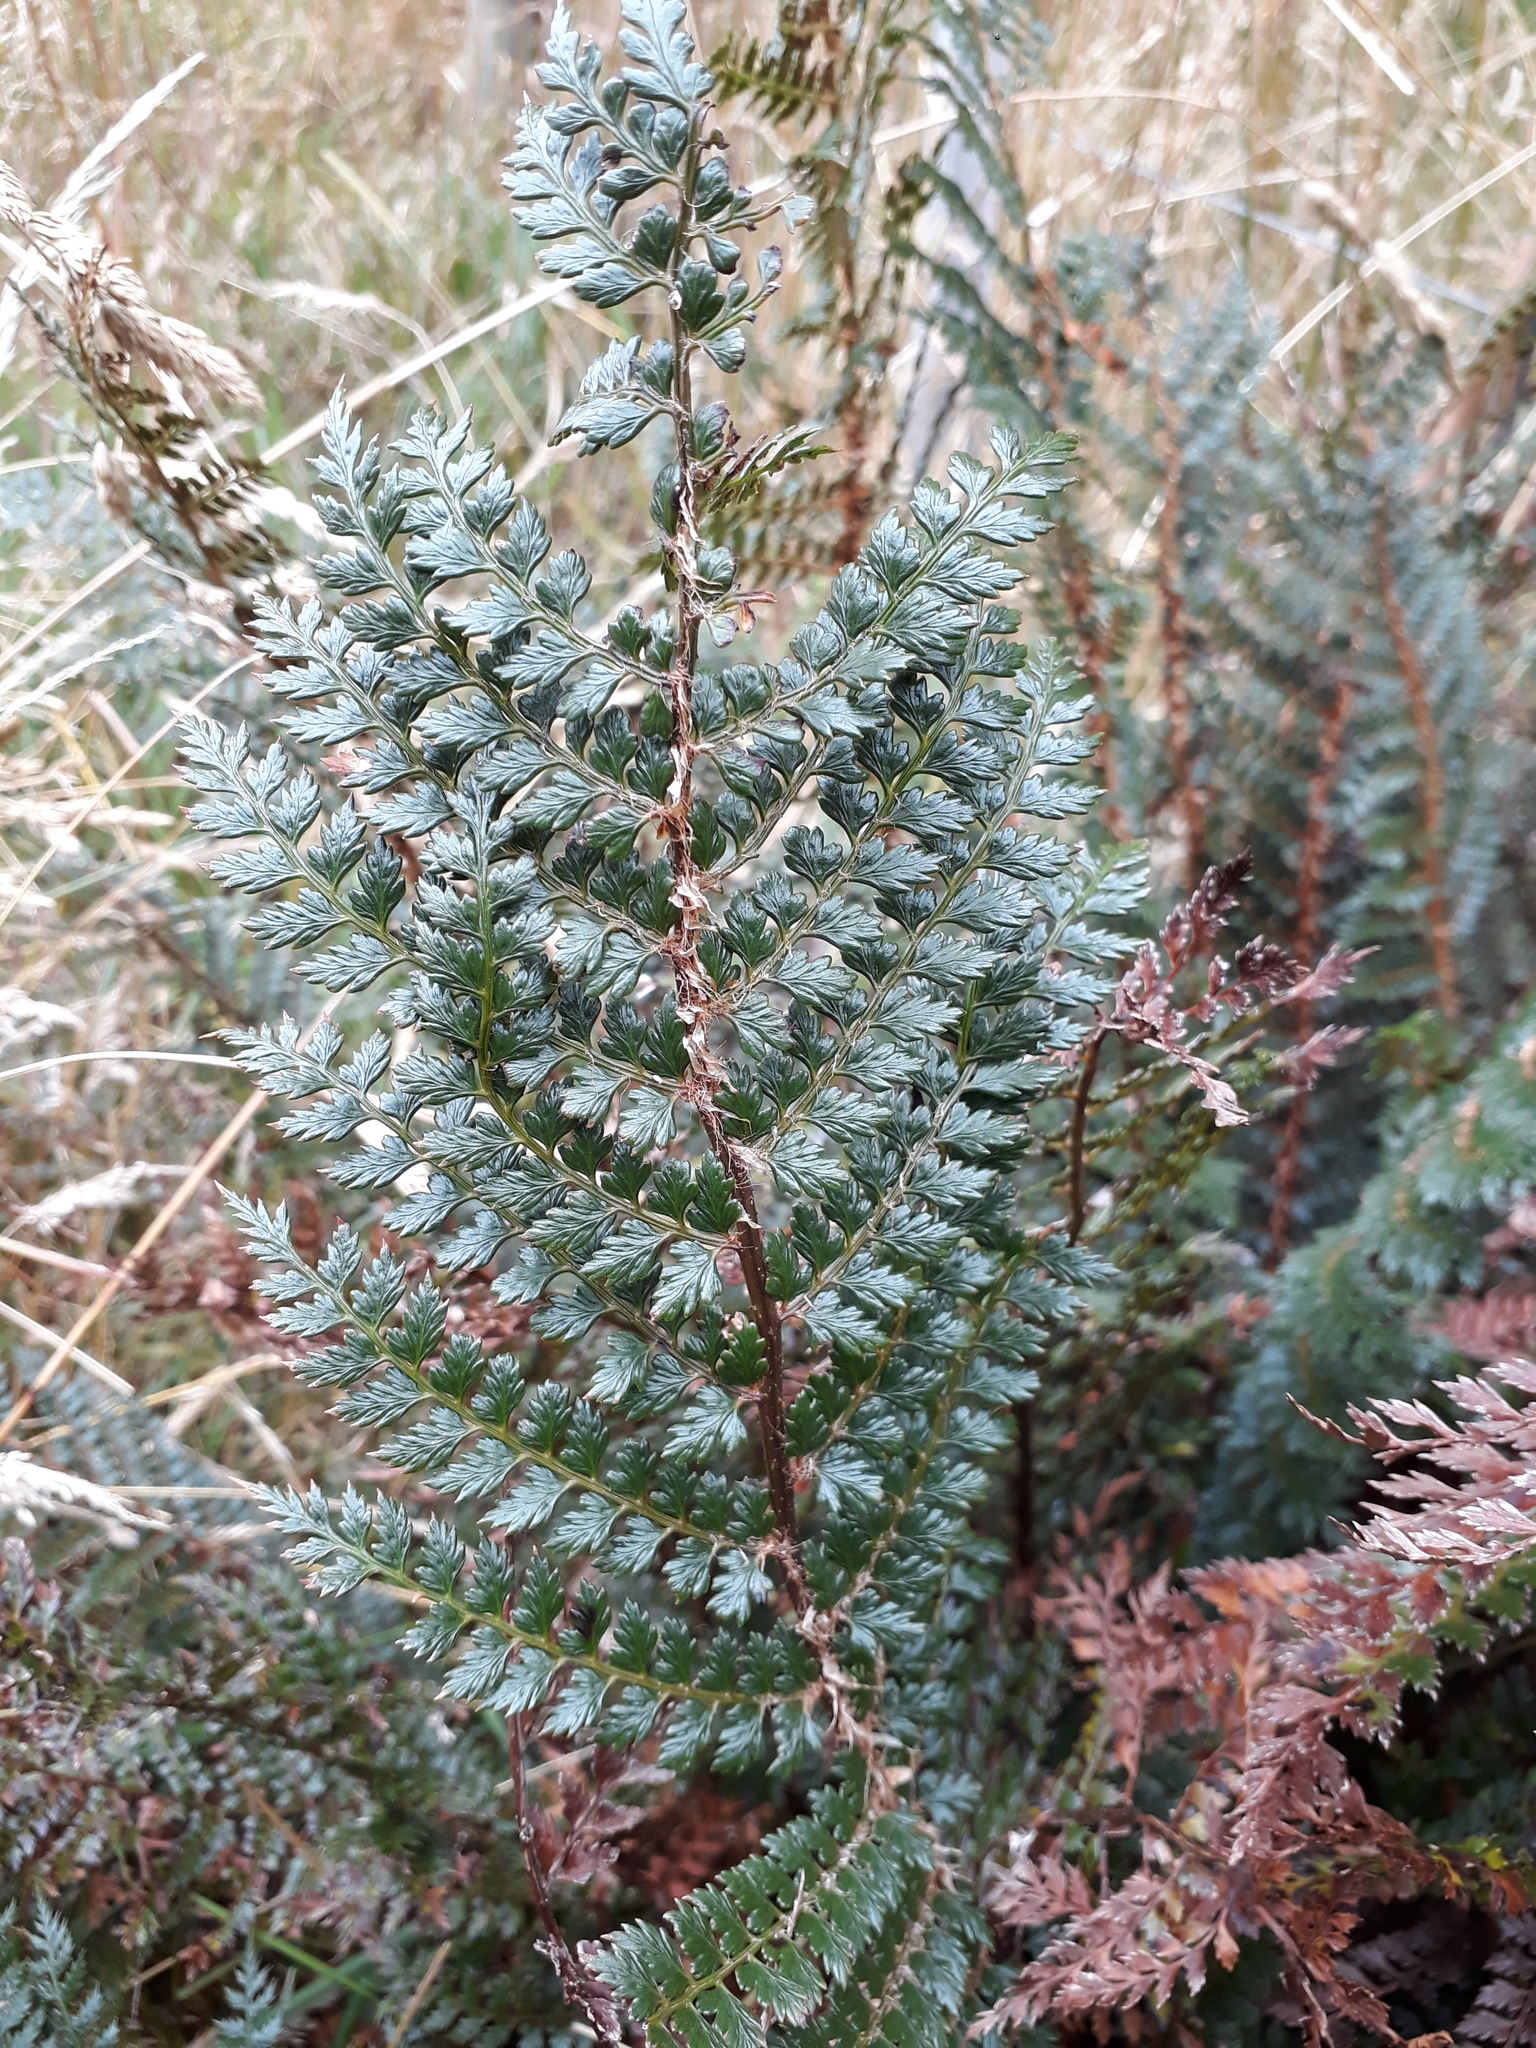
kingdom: Plantae
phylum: Tracheophyta
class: Polypodiopsida
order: Polypodiales
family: Dryopteridaceae
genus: Polystichum
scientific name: Polystichum vestitum
